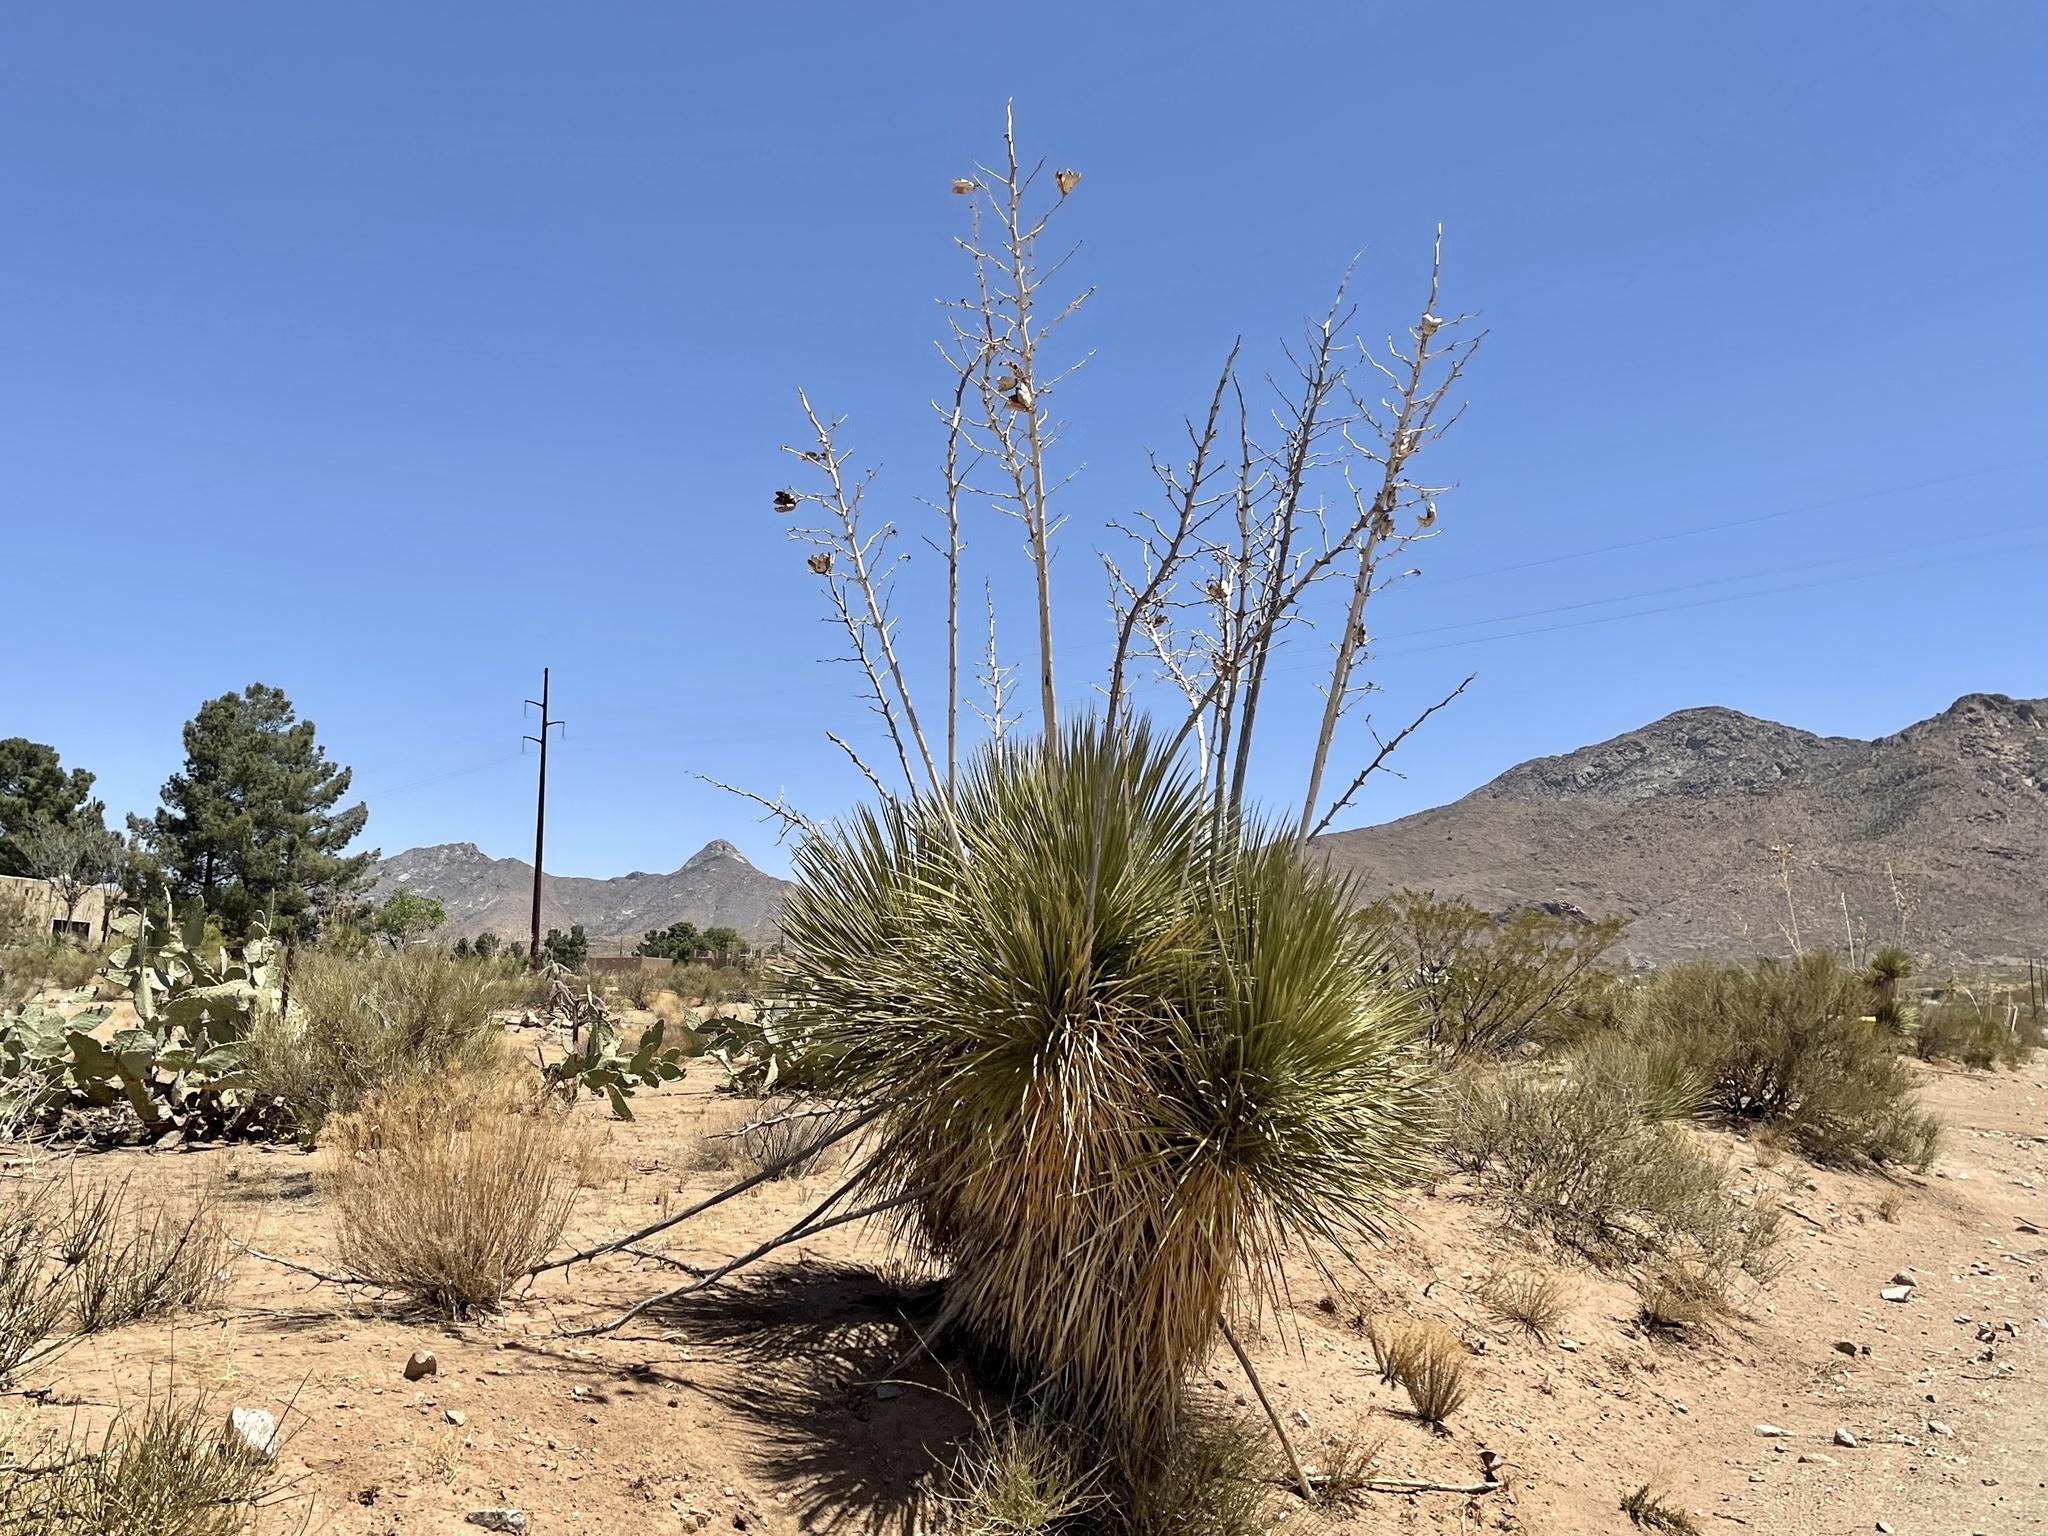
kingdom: Plantae
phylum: Tracheophyta
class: Liliopsida
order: Asparagales
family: Asparagaceae
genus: Yucca
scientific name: Yucca elata
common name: Palmella
